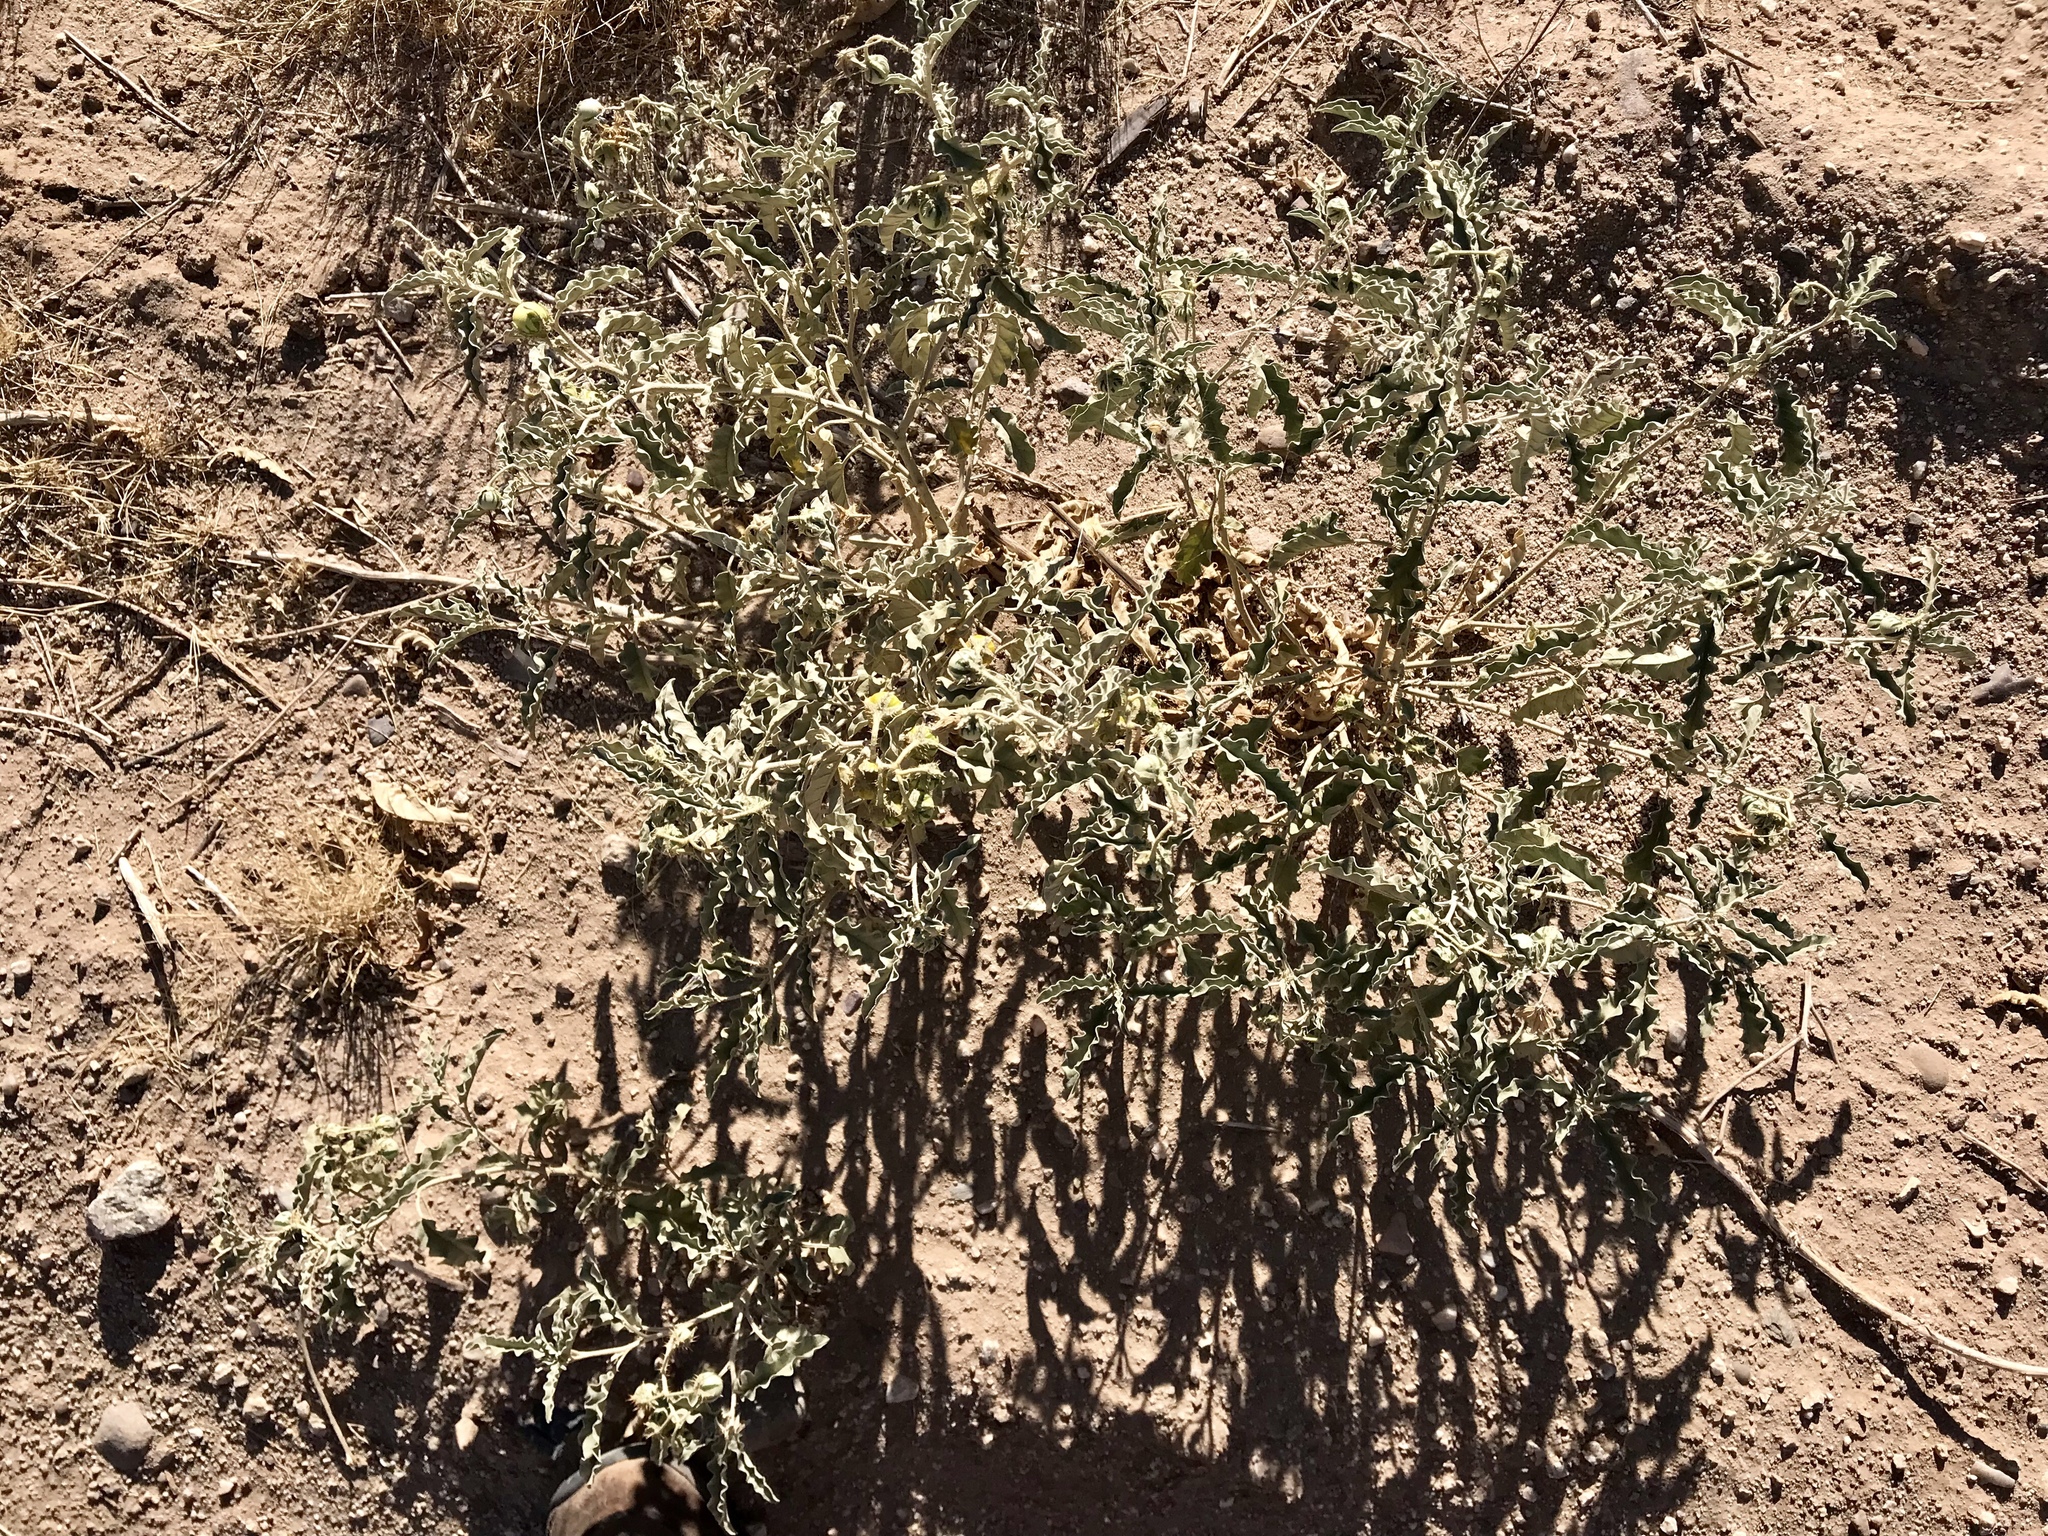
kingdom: Plantae
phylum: Tracheophyta
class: Magnoliopsida
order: Solanales
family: Solanaceae
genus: Solanum
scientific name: Solanum elaeagnifolium
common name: Silverleaf nightshade
